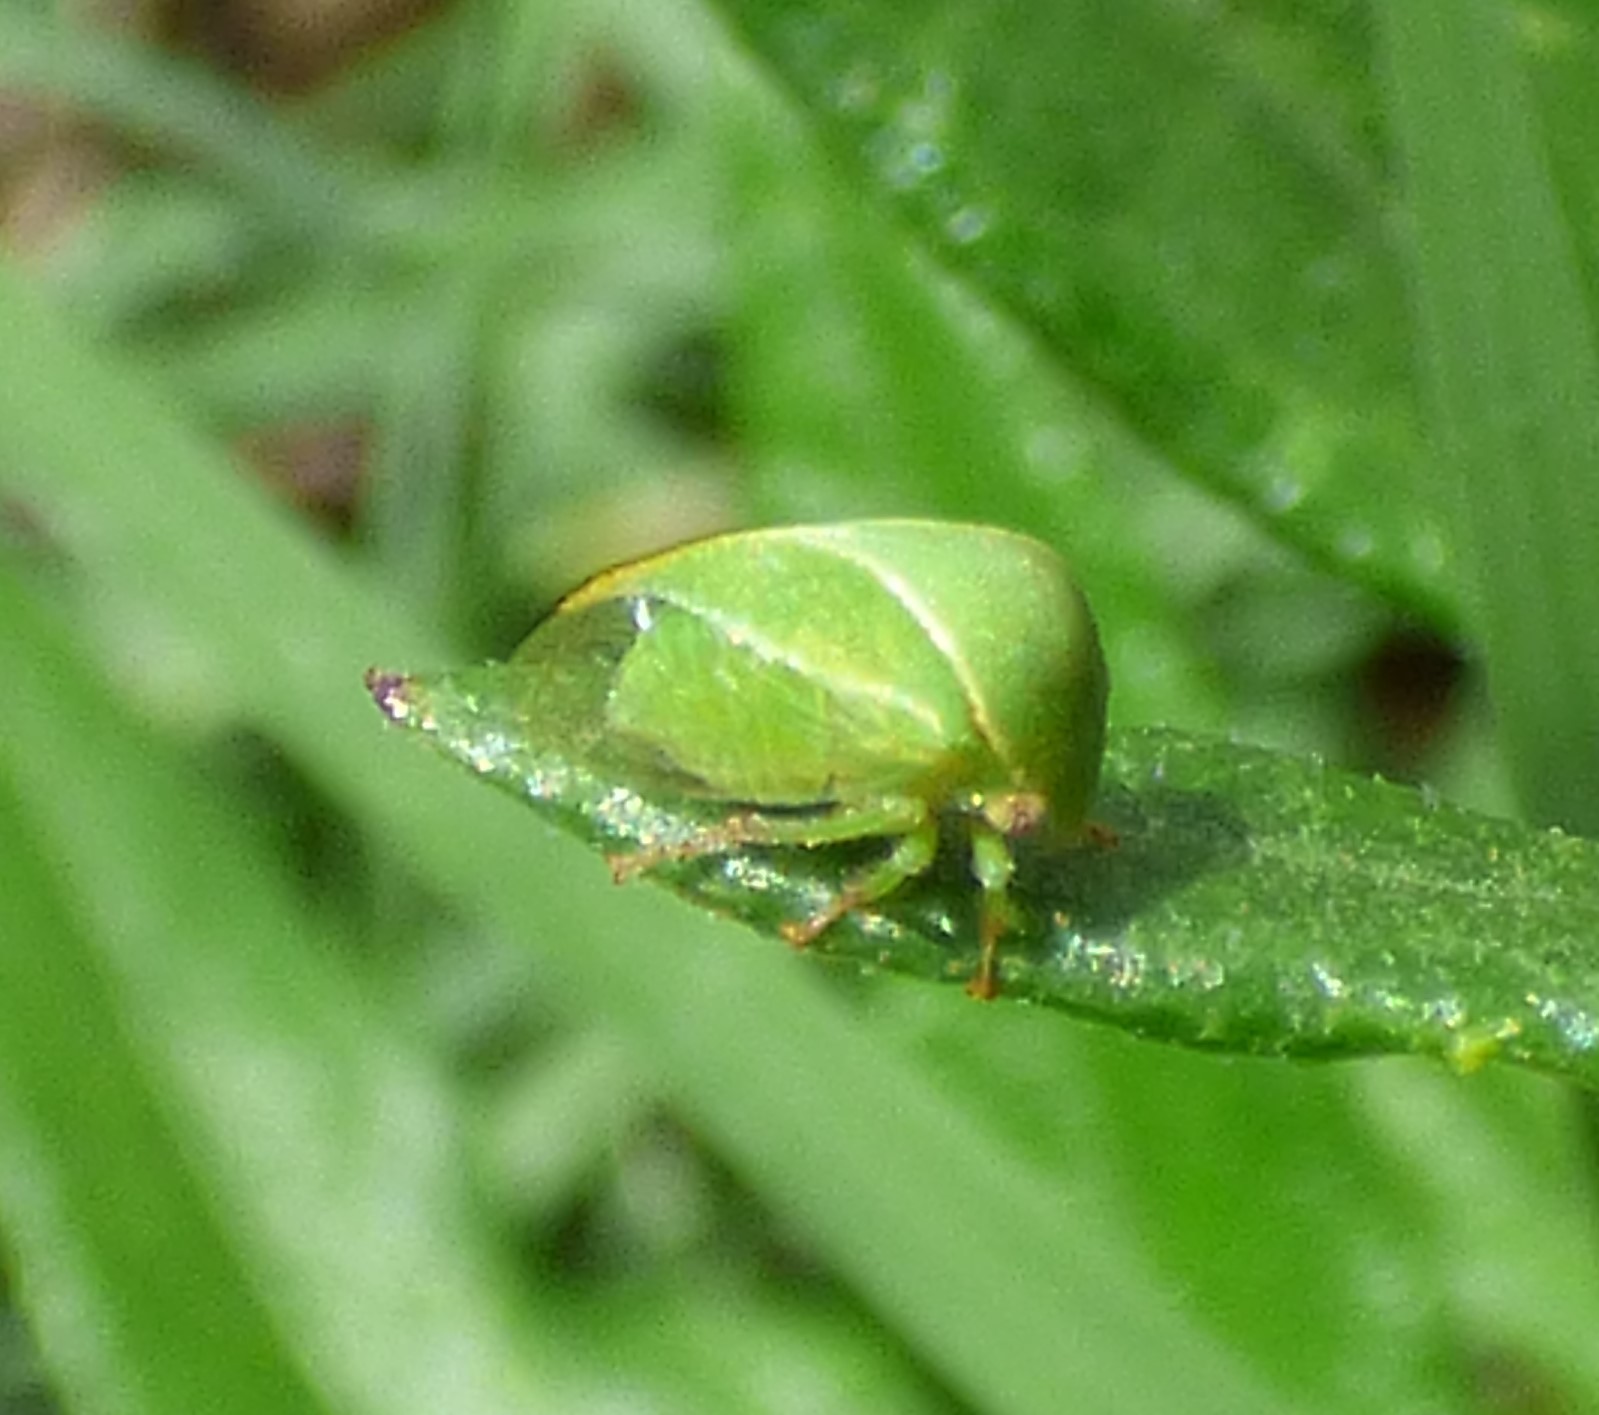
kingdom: Animalia
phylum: Arthropoda
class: Insecta
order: Hemiptera
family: Membracidae
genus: Spissistilus
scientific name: Spissistilus festina
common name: Membracid bug
